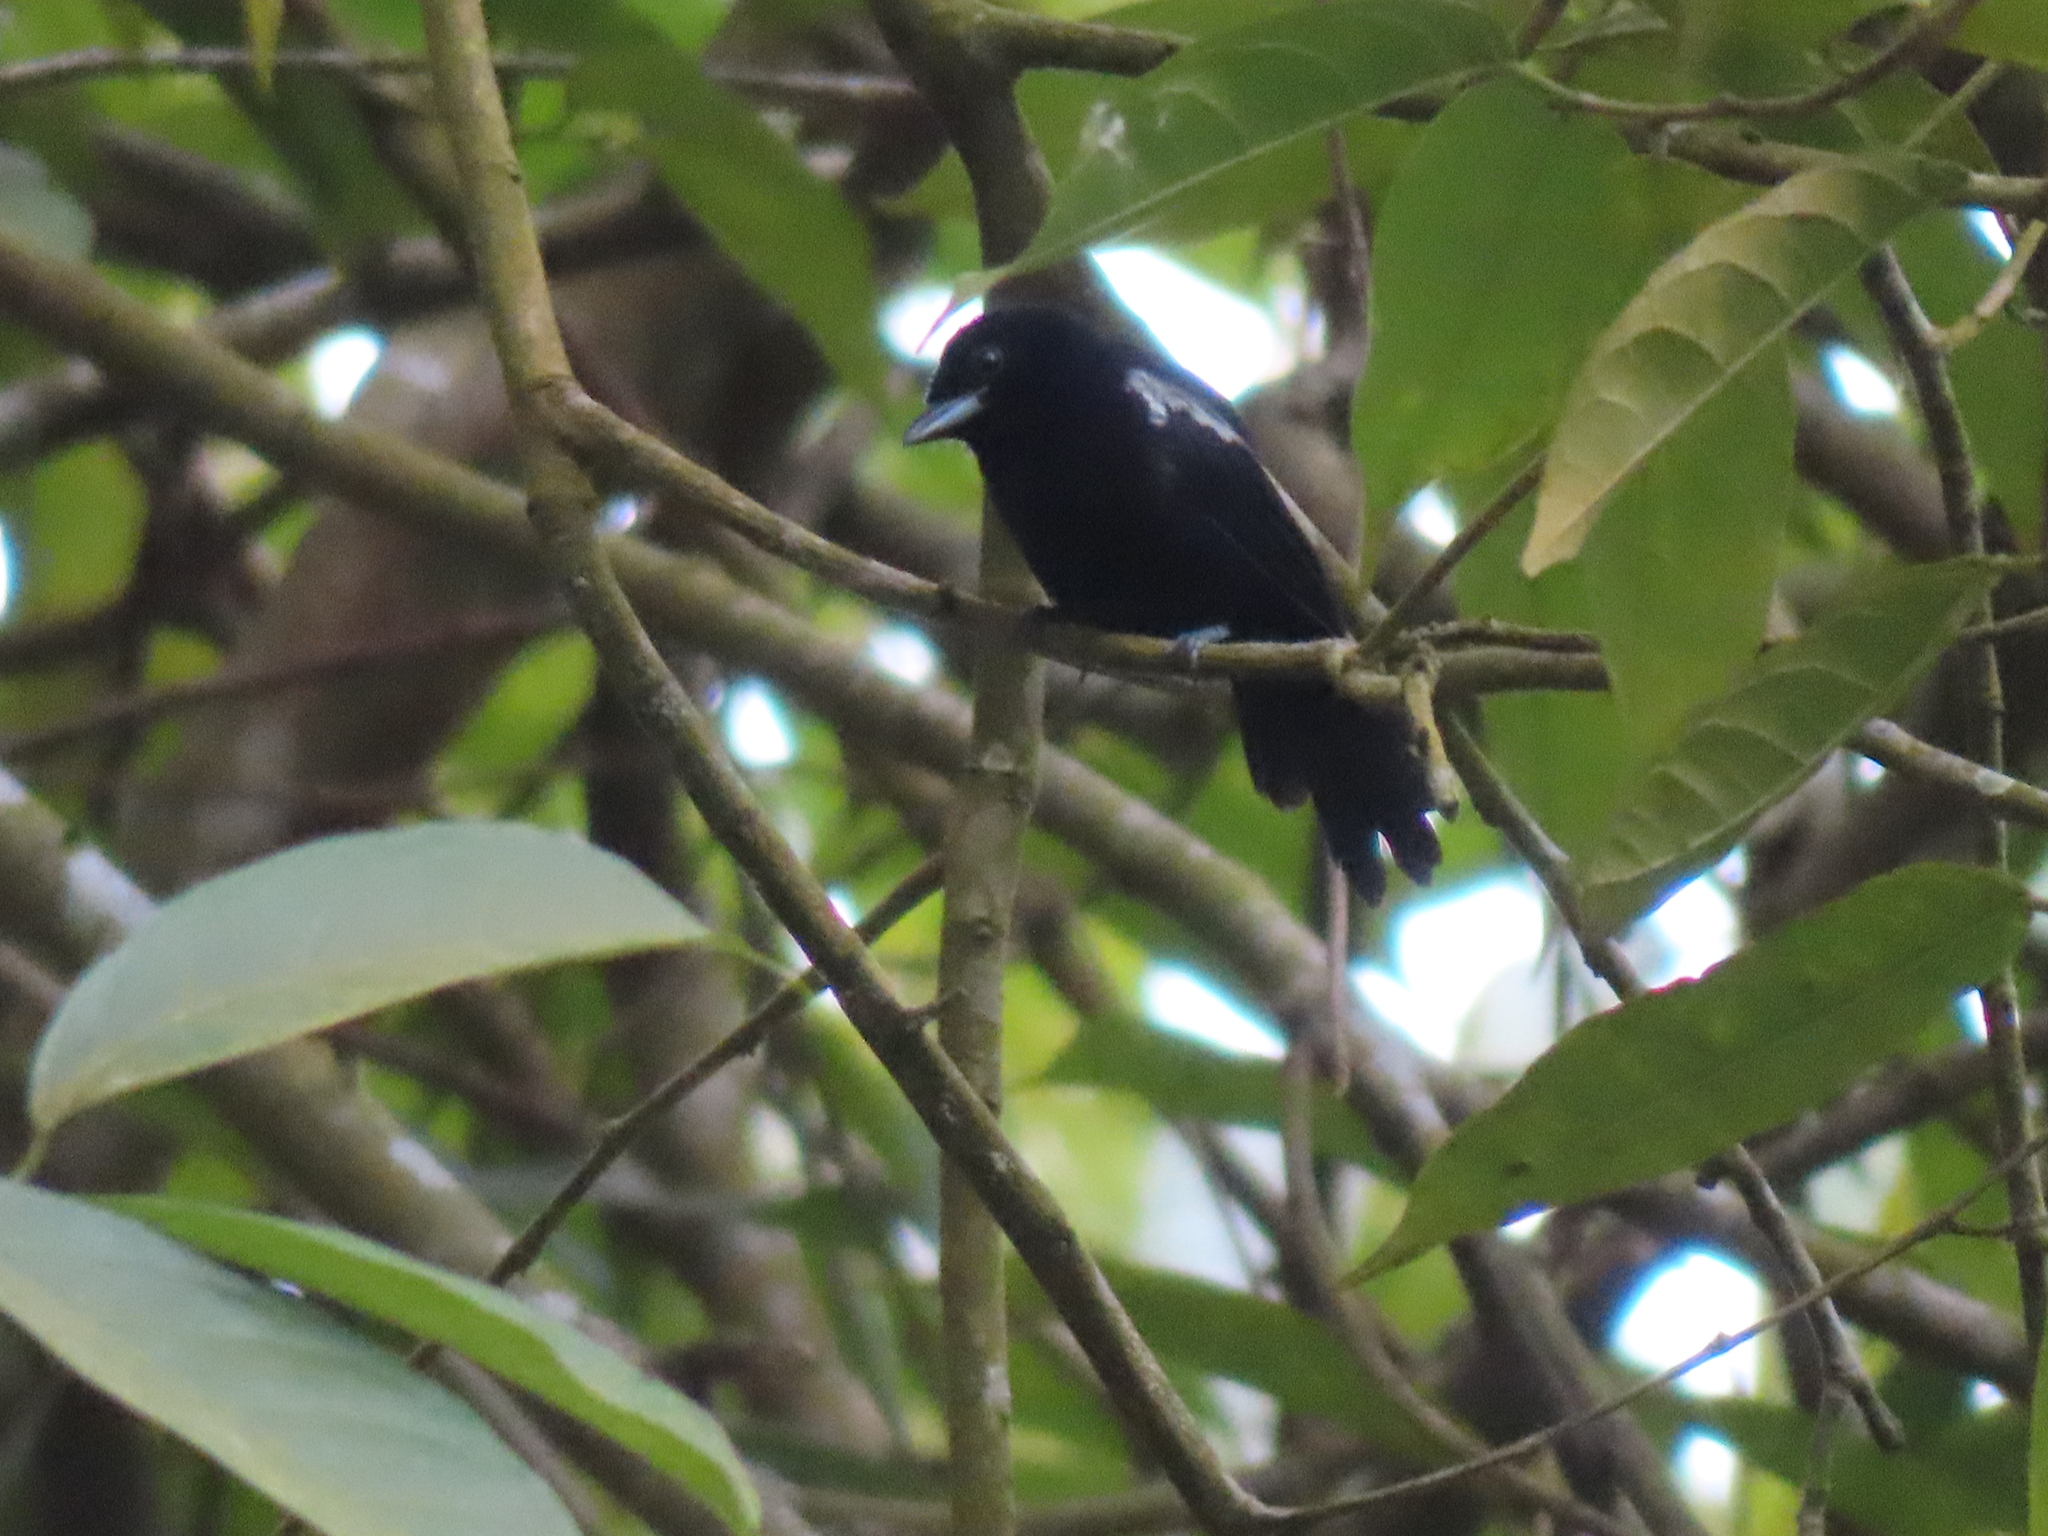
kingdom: Animalia
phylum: Chordata
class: Aves
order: Passeriformes
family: Thraupidae
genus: Loriotus
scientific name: Loriotus luctuosus
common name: White-shouldered tanager
